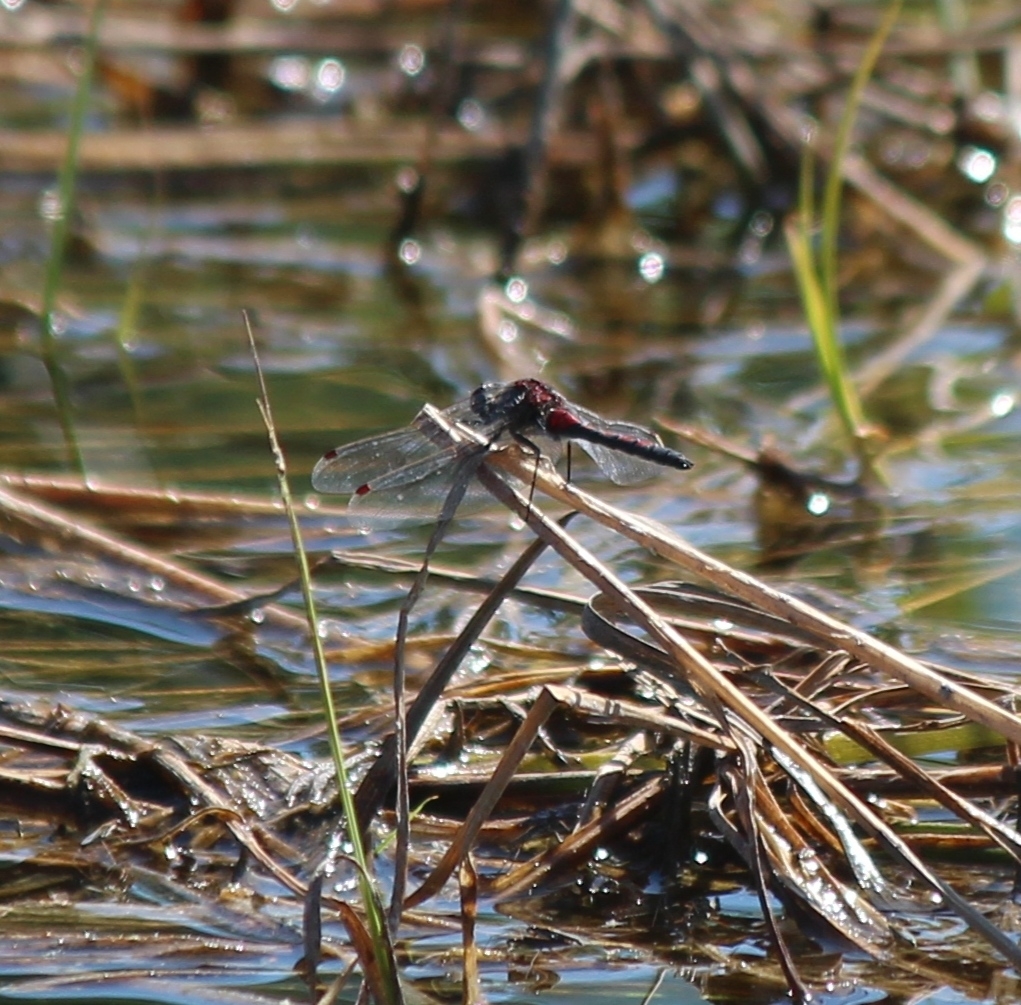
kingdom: Animalia
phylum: Arthropoda
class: Insecta
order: Odonata
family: Libellulidae
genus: Leucorrhinia
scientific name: Leucorrhinia rubicunda
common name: Ruby whiteface
